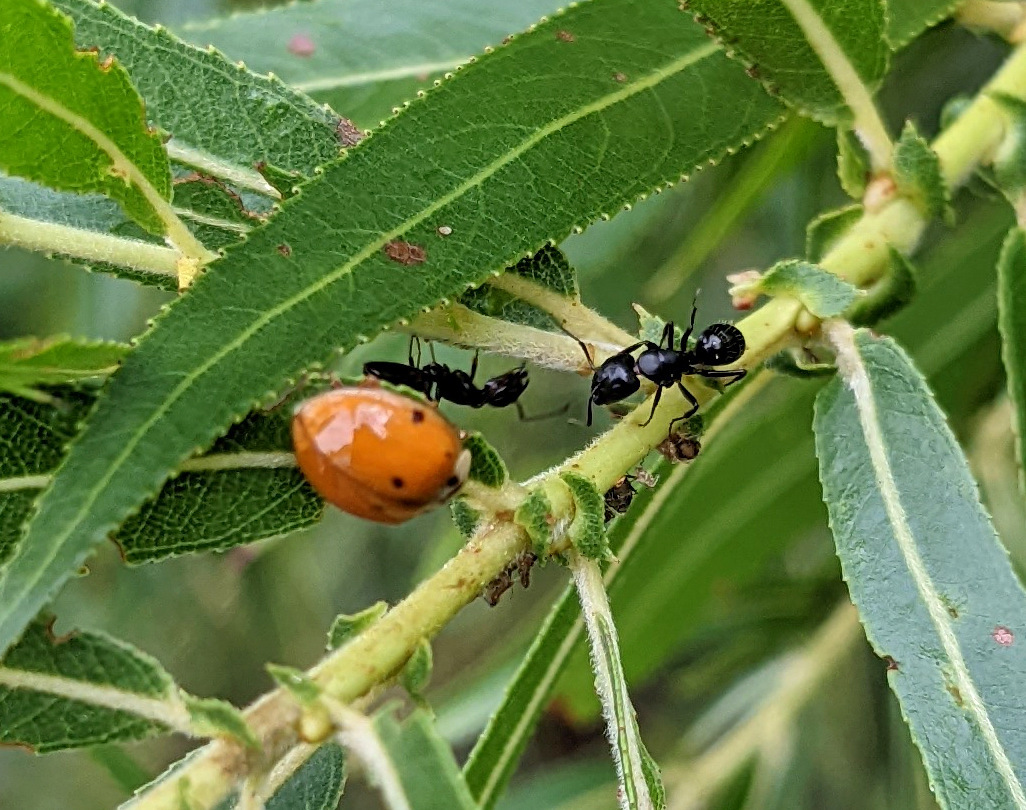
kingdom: Animalia
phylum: Arthropoda
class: Insecta
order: Coleoptera
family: Coccinellidae
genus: Harmonia
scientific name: Harmonia axyridis
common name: Harlequin ladybird
